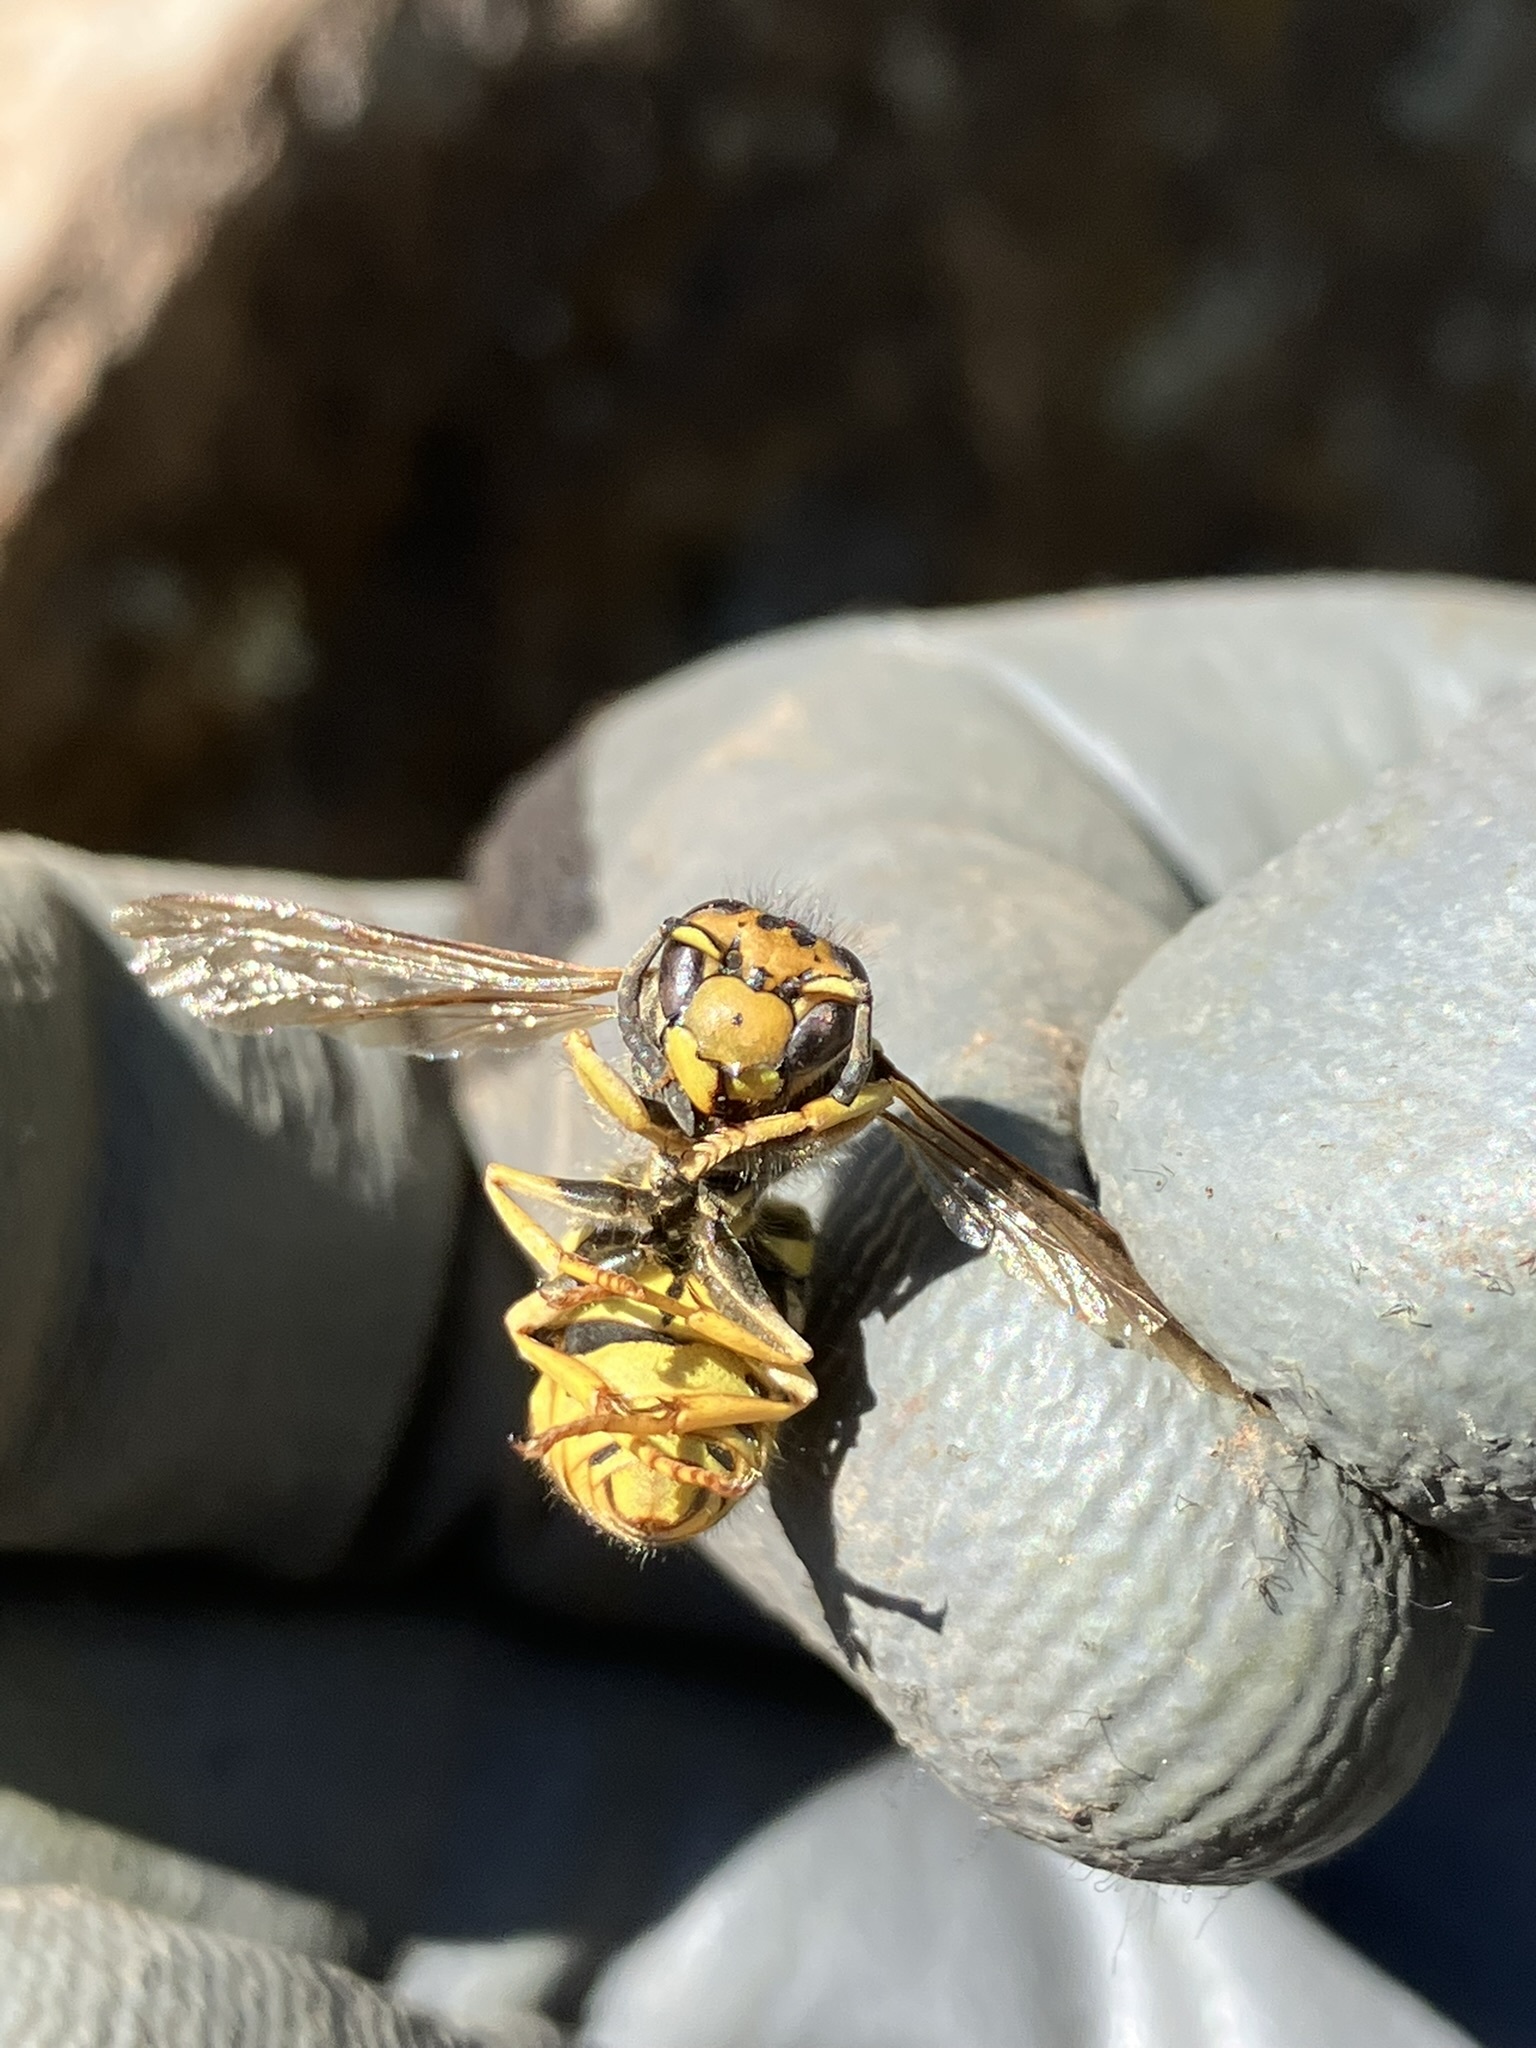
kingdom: Animalia
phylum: Arthropoda
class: Insecta
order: Hymenoptera
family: Vespidae
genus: Vespula
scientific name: Vespula pensylvanica
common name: Western yellowjacket
